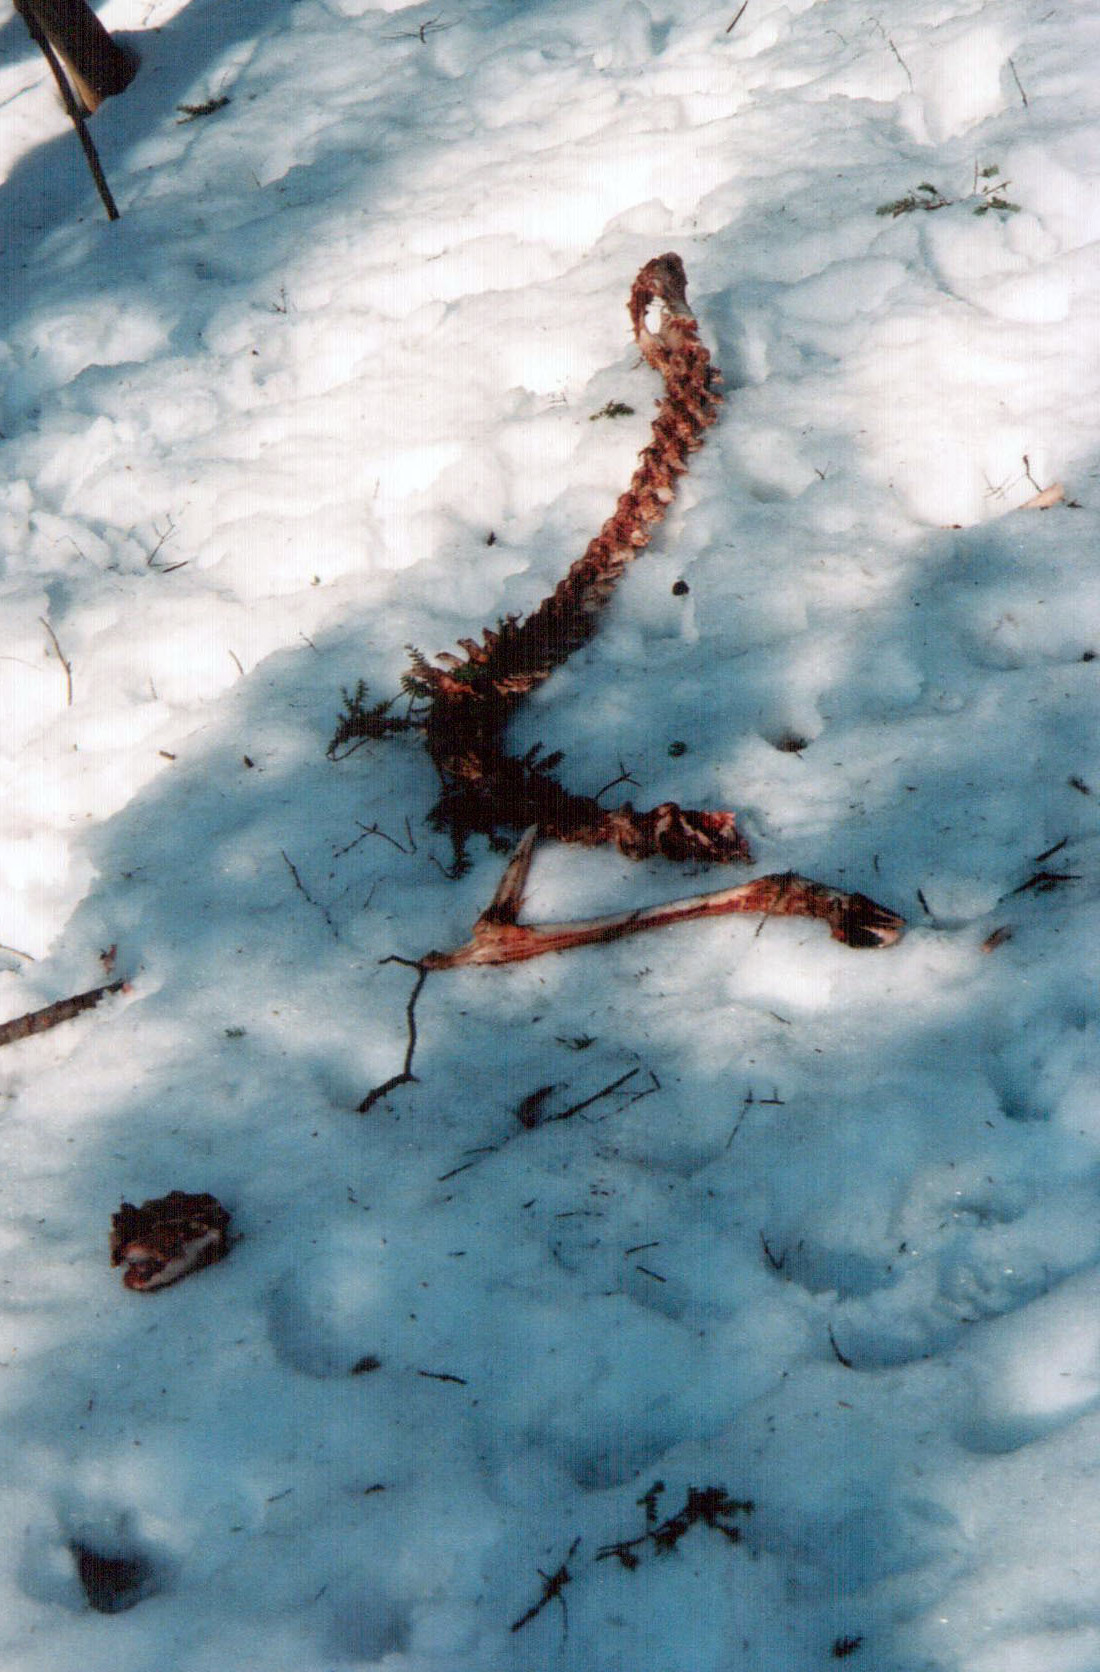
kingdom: Animalia
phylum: Chordata
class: Mammalia
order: Artiodactyla
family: Cervidae
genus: Odocoileus
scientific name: Odocoileus virginianus
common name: White-tailed deer
